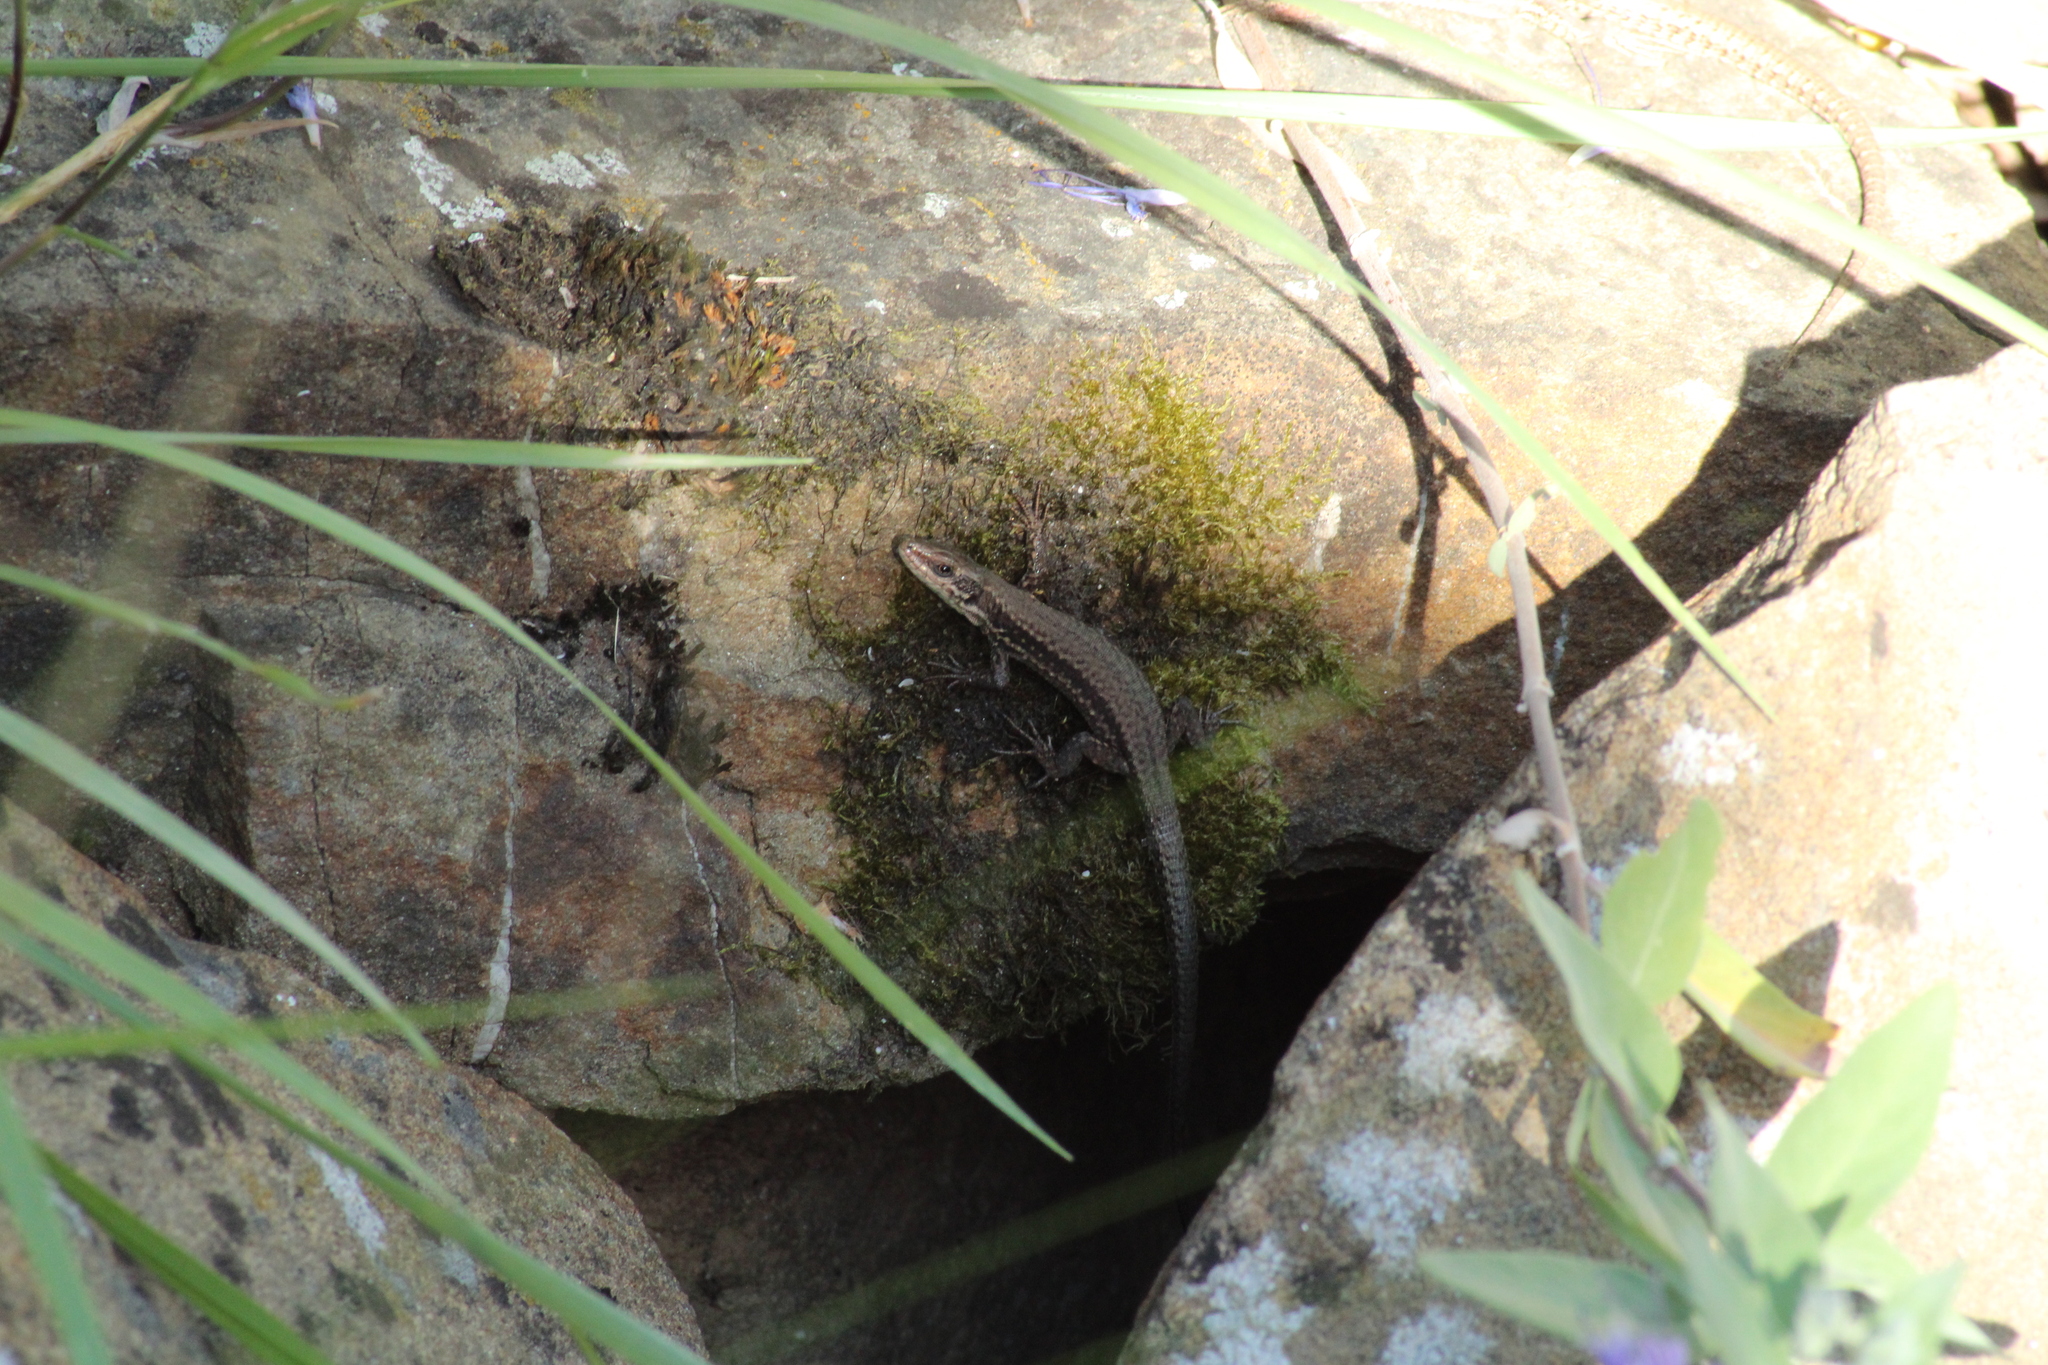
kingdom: Animalia
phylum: Chordata
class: Squamata
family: Lacertidae
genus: Podarcis
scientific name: Podarcis muralis
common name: Common wall lizard
